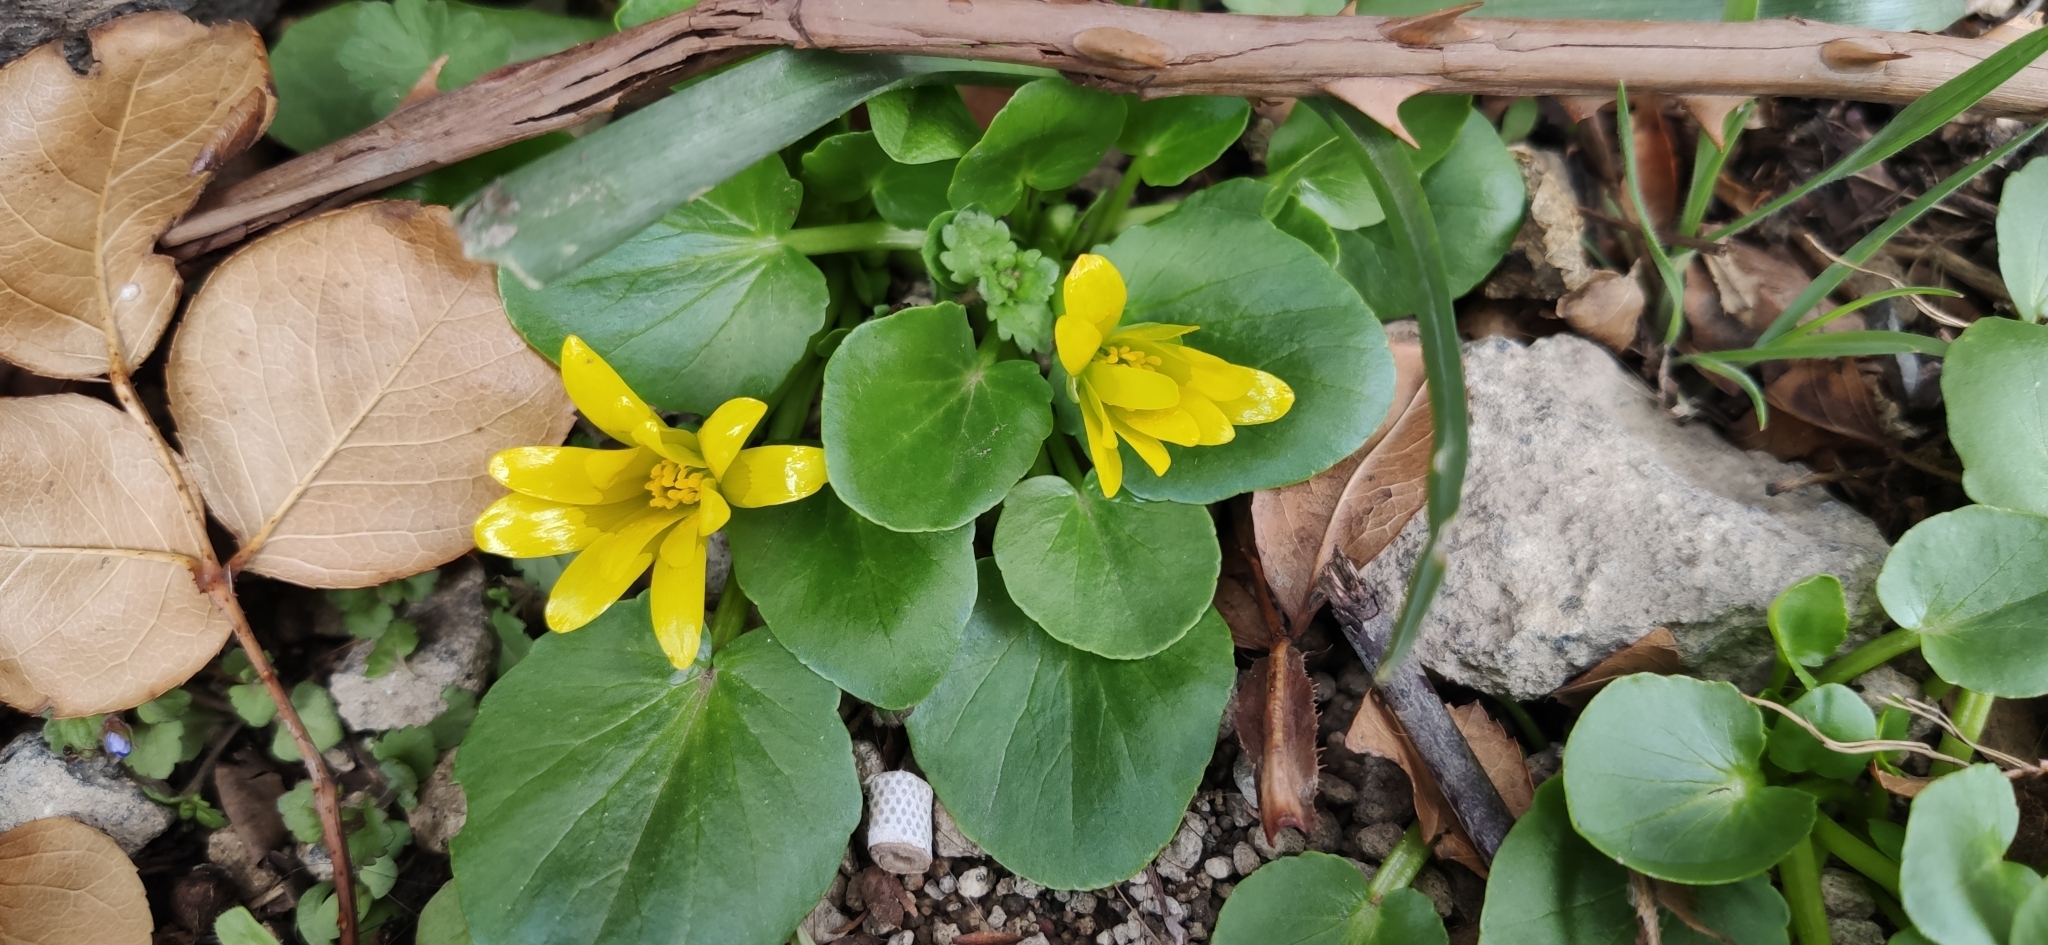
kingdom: Plantae
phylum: Tracheophyta
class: Magnoliopsida
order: Ranunculales
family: Ranunculaceae
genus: Ficaria
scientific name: Ficaria verna
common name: Lesser celandine
